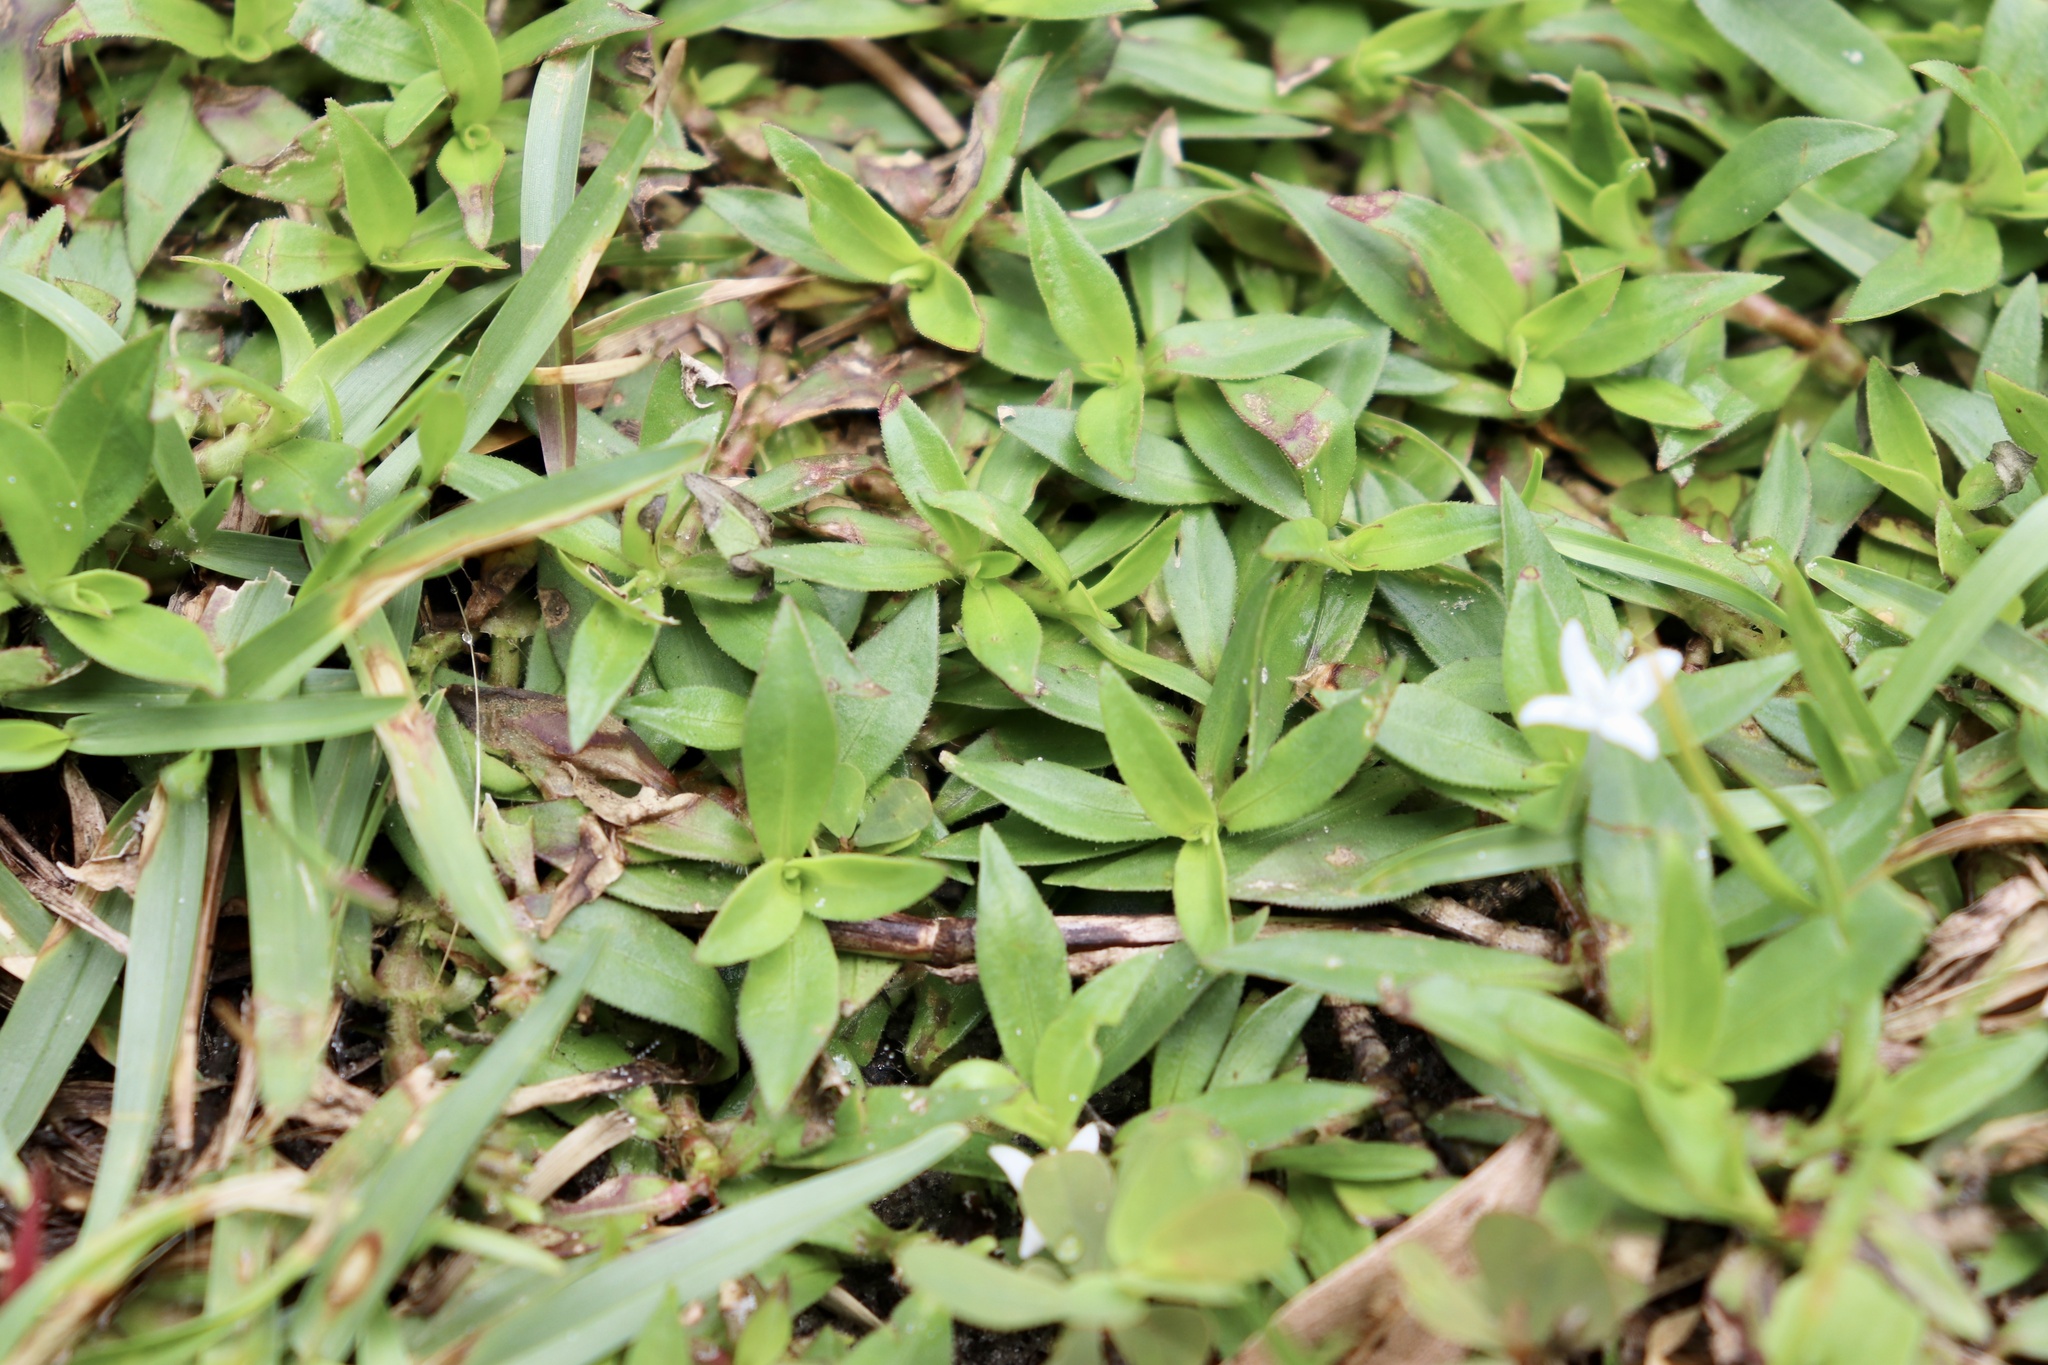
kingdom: Plantae
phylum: Tracheophyta
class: Magnoliopsida
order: Gentianales
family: Rubiaceae
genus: Diodia
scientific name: Diodia virginiana
